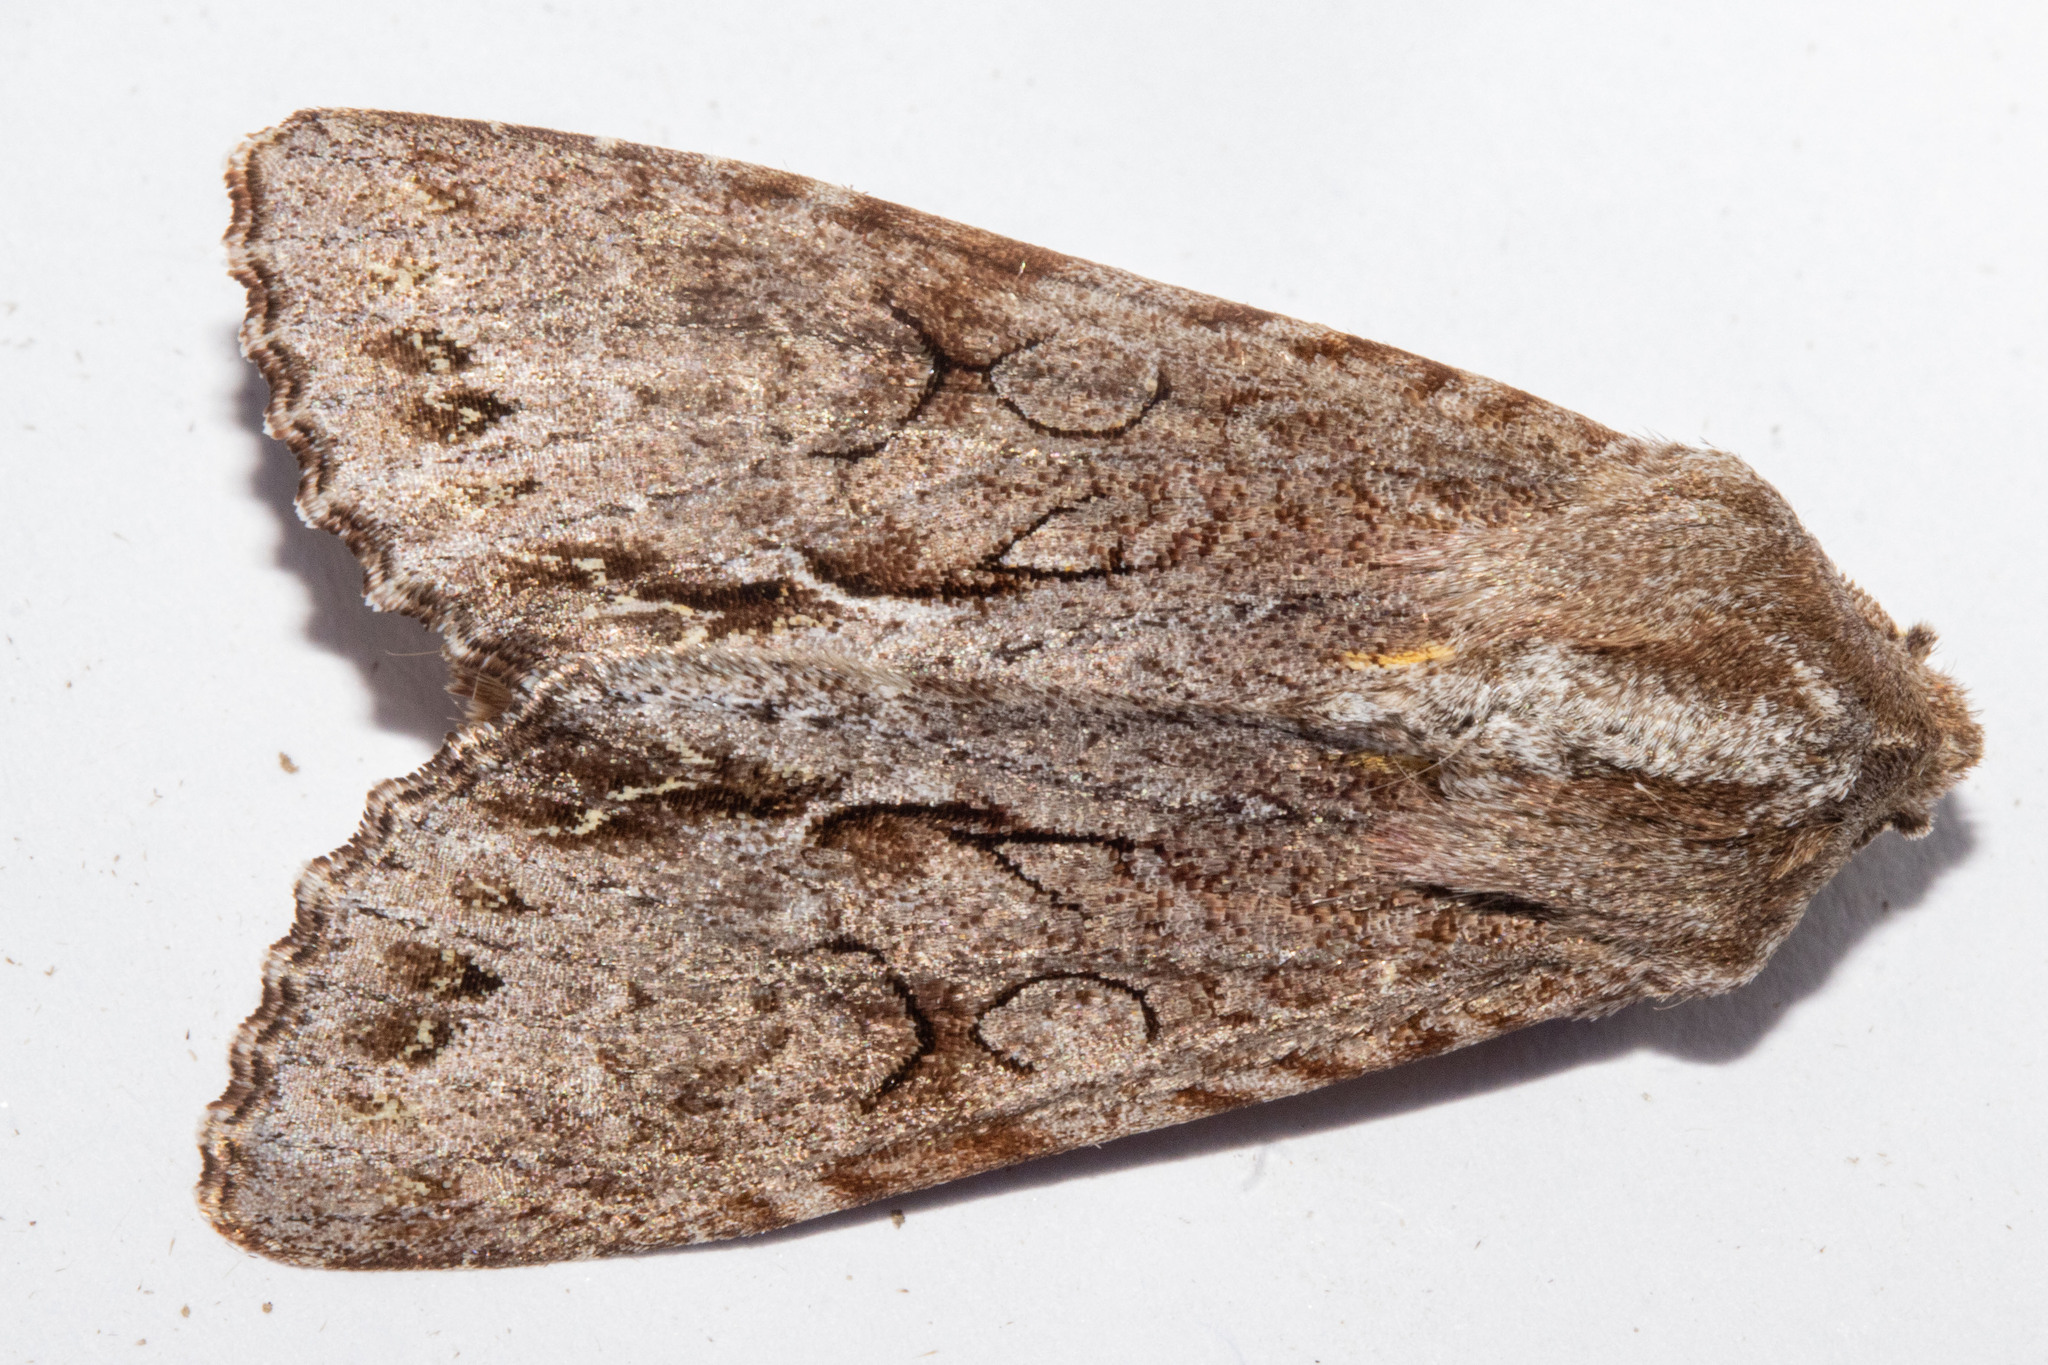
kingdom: Animalia
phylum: Arthropoda
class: Insecta
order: Lepidoptera
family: Noctuidae
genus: Ichneutica
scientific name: Ichneutica
